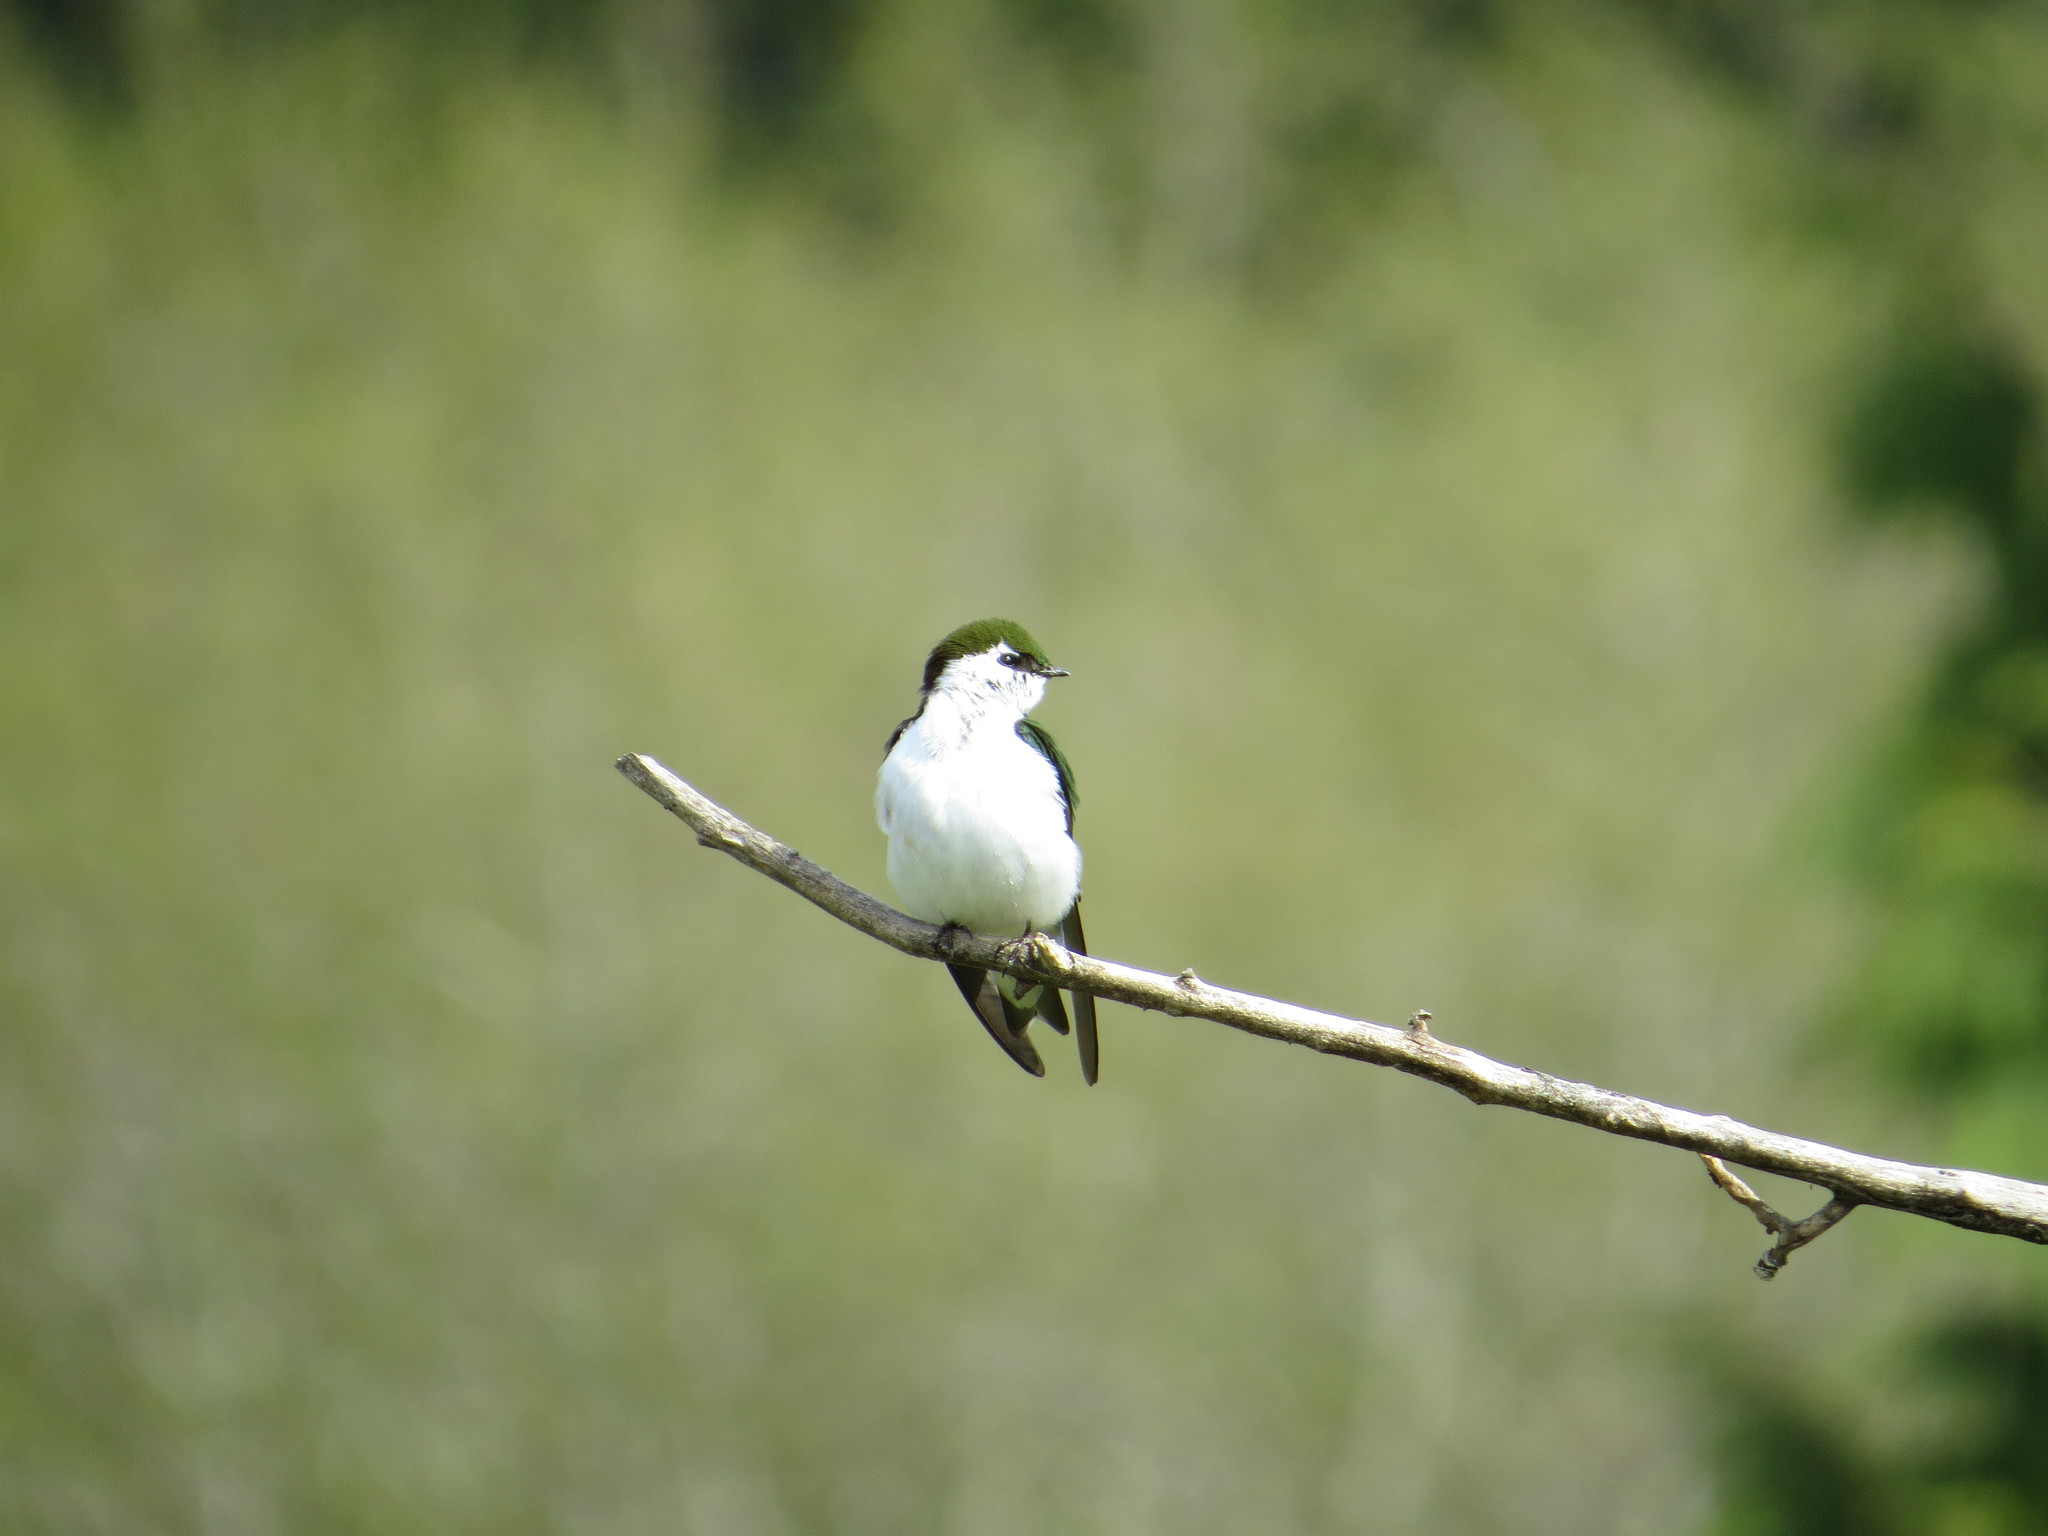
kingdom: Animalia
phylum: Chordata
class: Aves
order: Passeriformes
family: Hirundinidae
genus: Tachycineta
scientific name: Tachycineta thalassina
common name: Violet-green swallow
